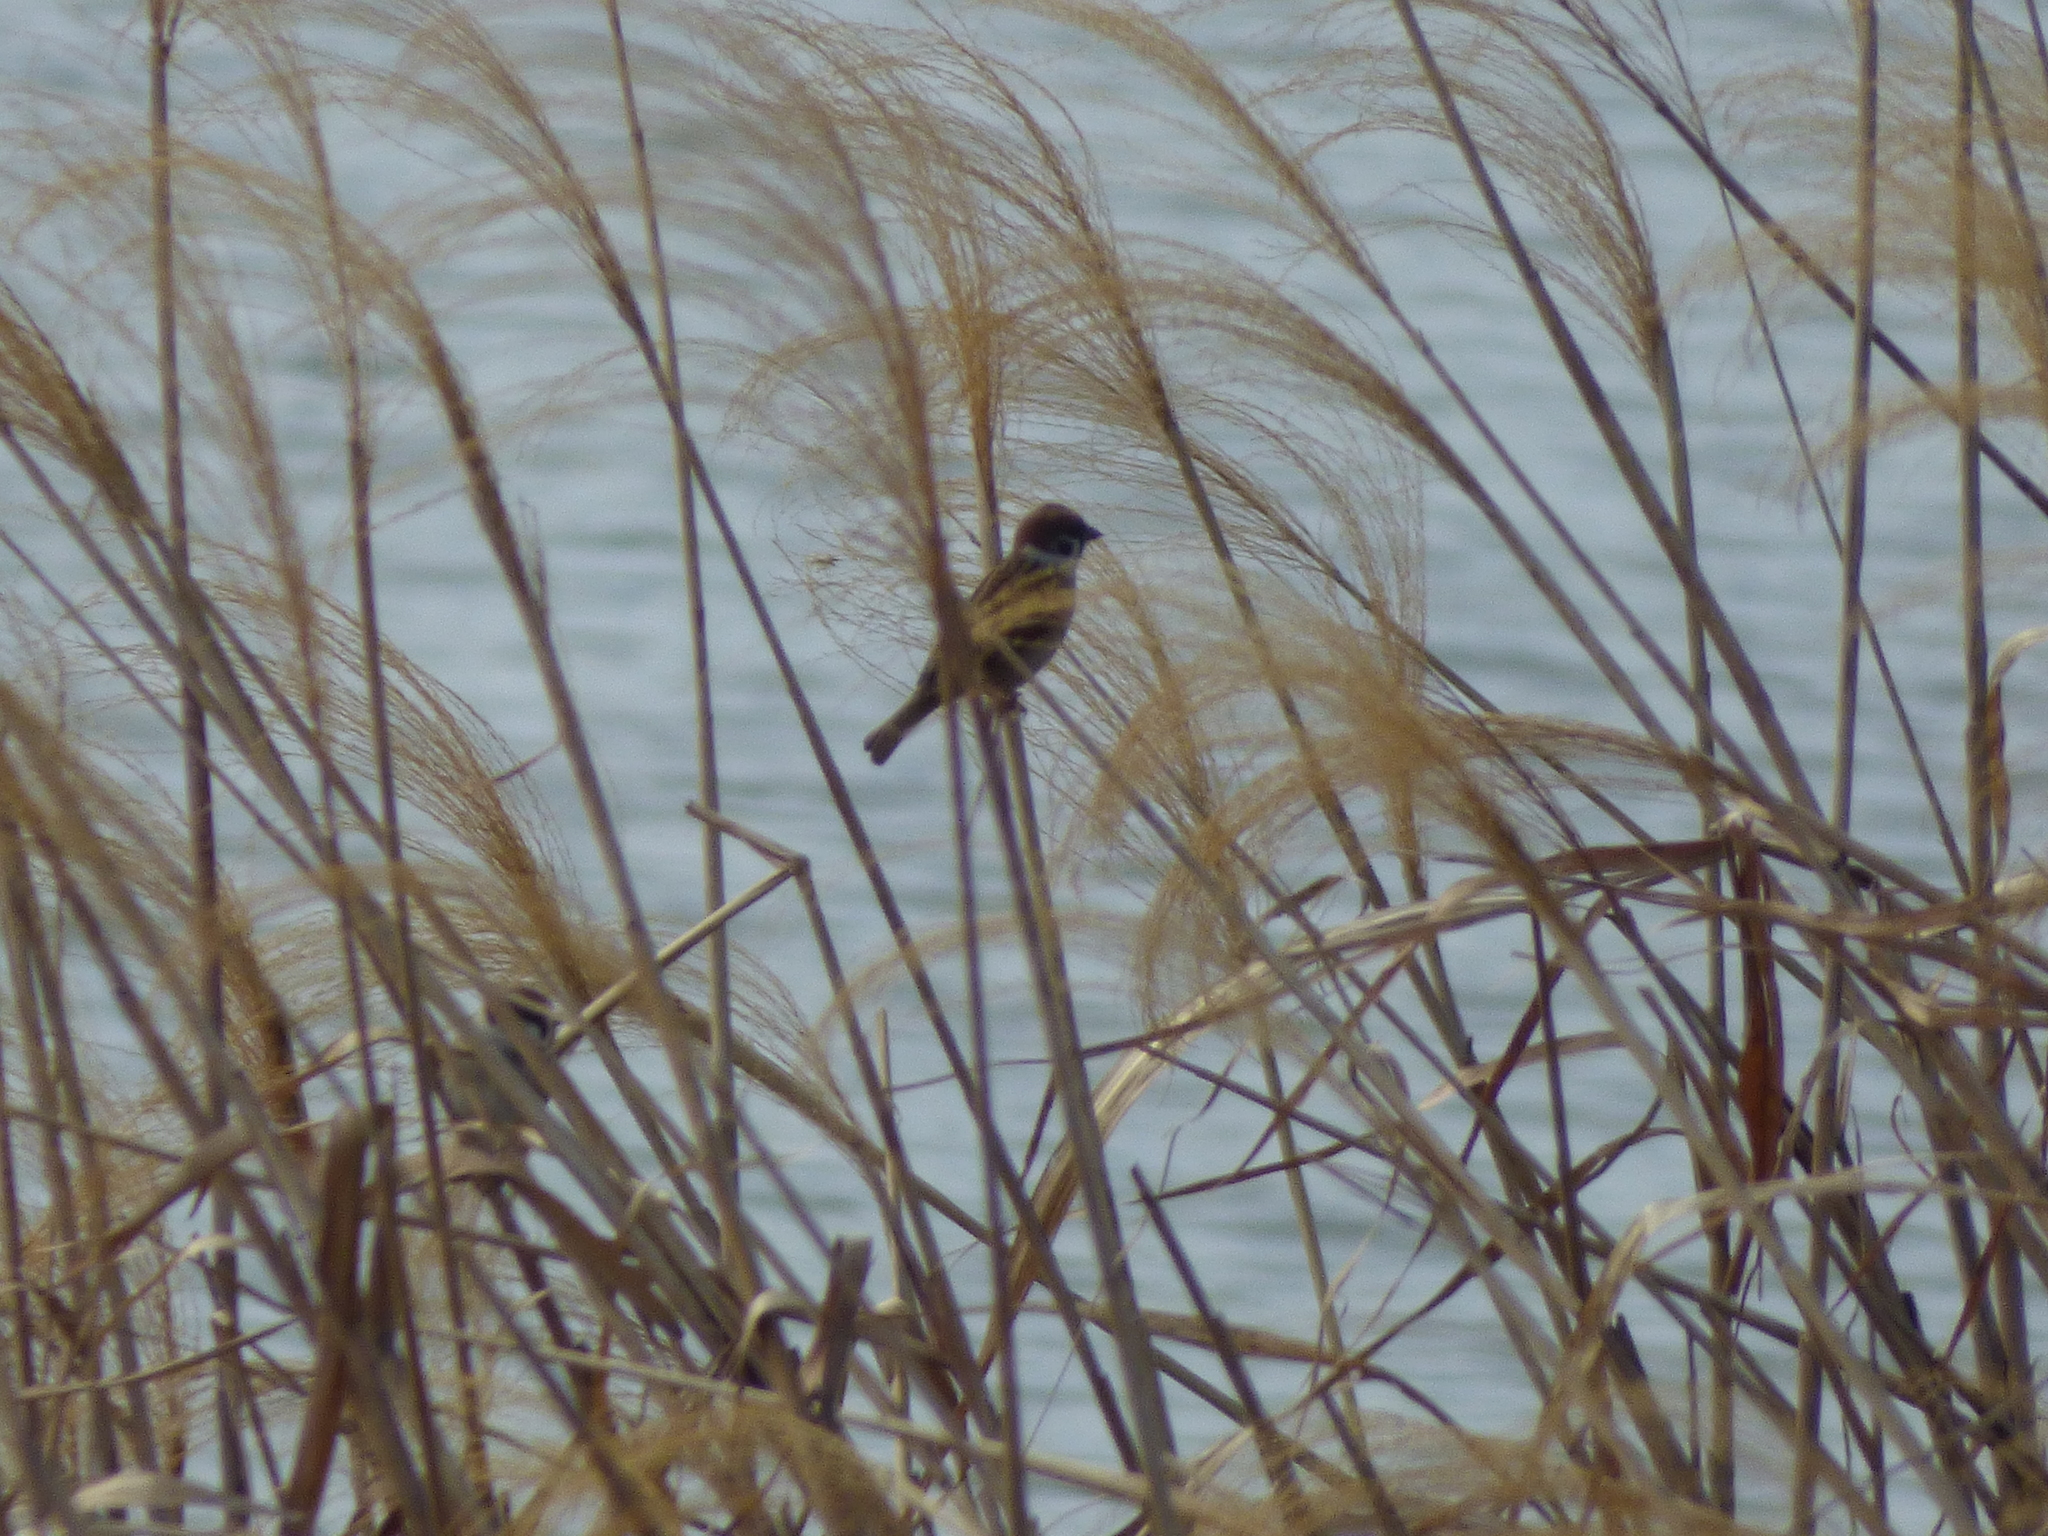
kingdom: Animalia
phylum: Chordata
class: Aves
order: Passeriformes
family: Passeridae
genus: Passer
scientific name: Passer montanus
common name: Eurasian tree sparrow
